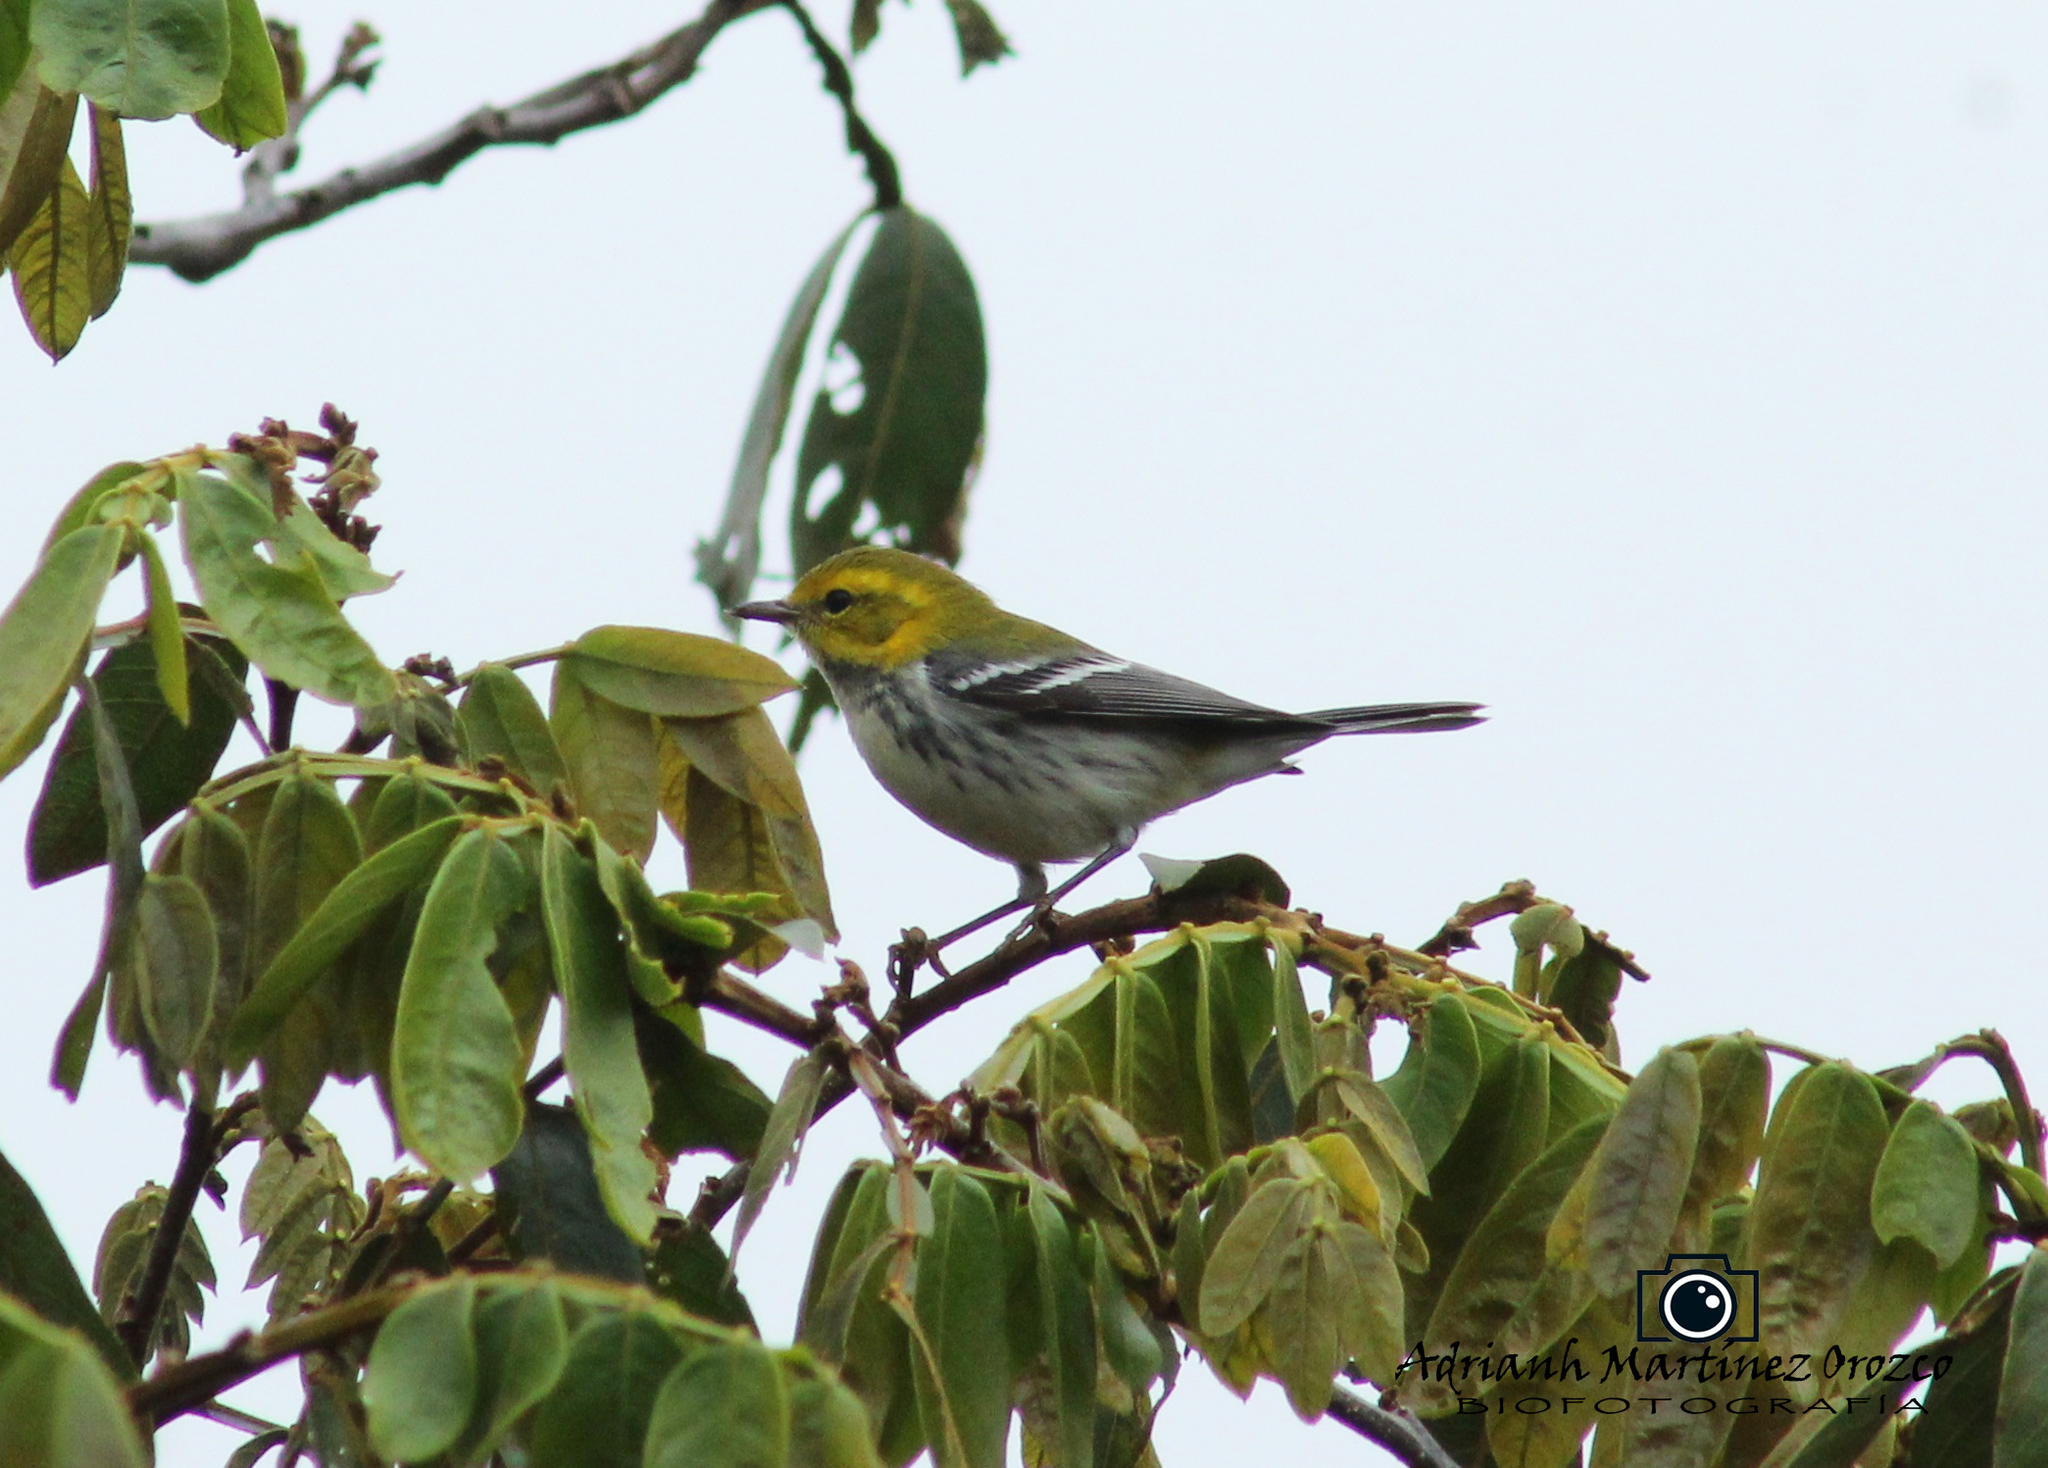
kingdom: Animalia
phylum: Chordata
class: Aves
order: Passeriformes
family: Parulidae
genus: Setophaga
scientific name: Setophaga virens
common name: Black-throated green warbler
